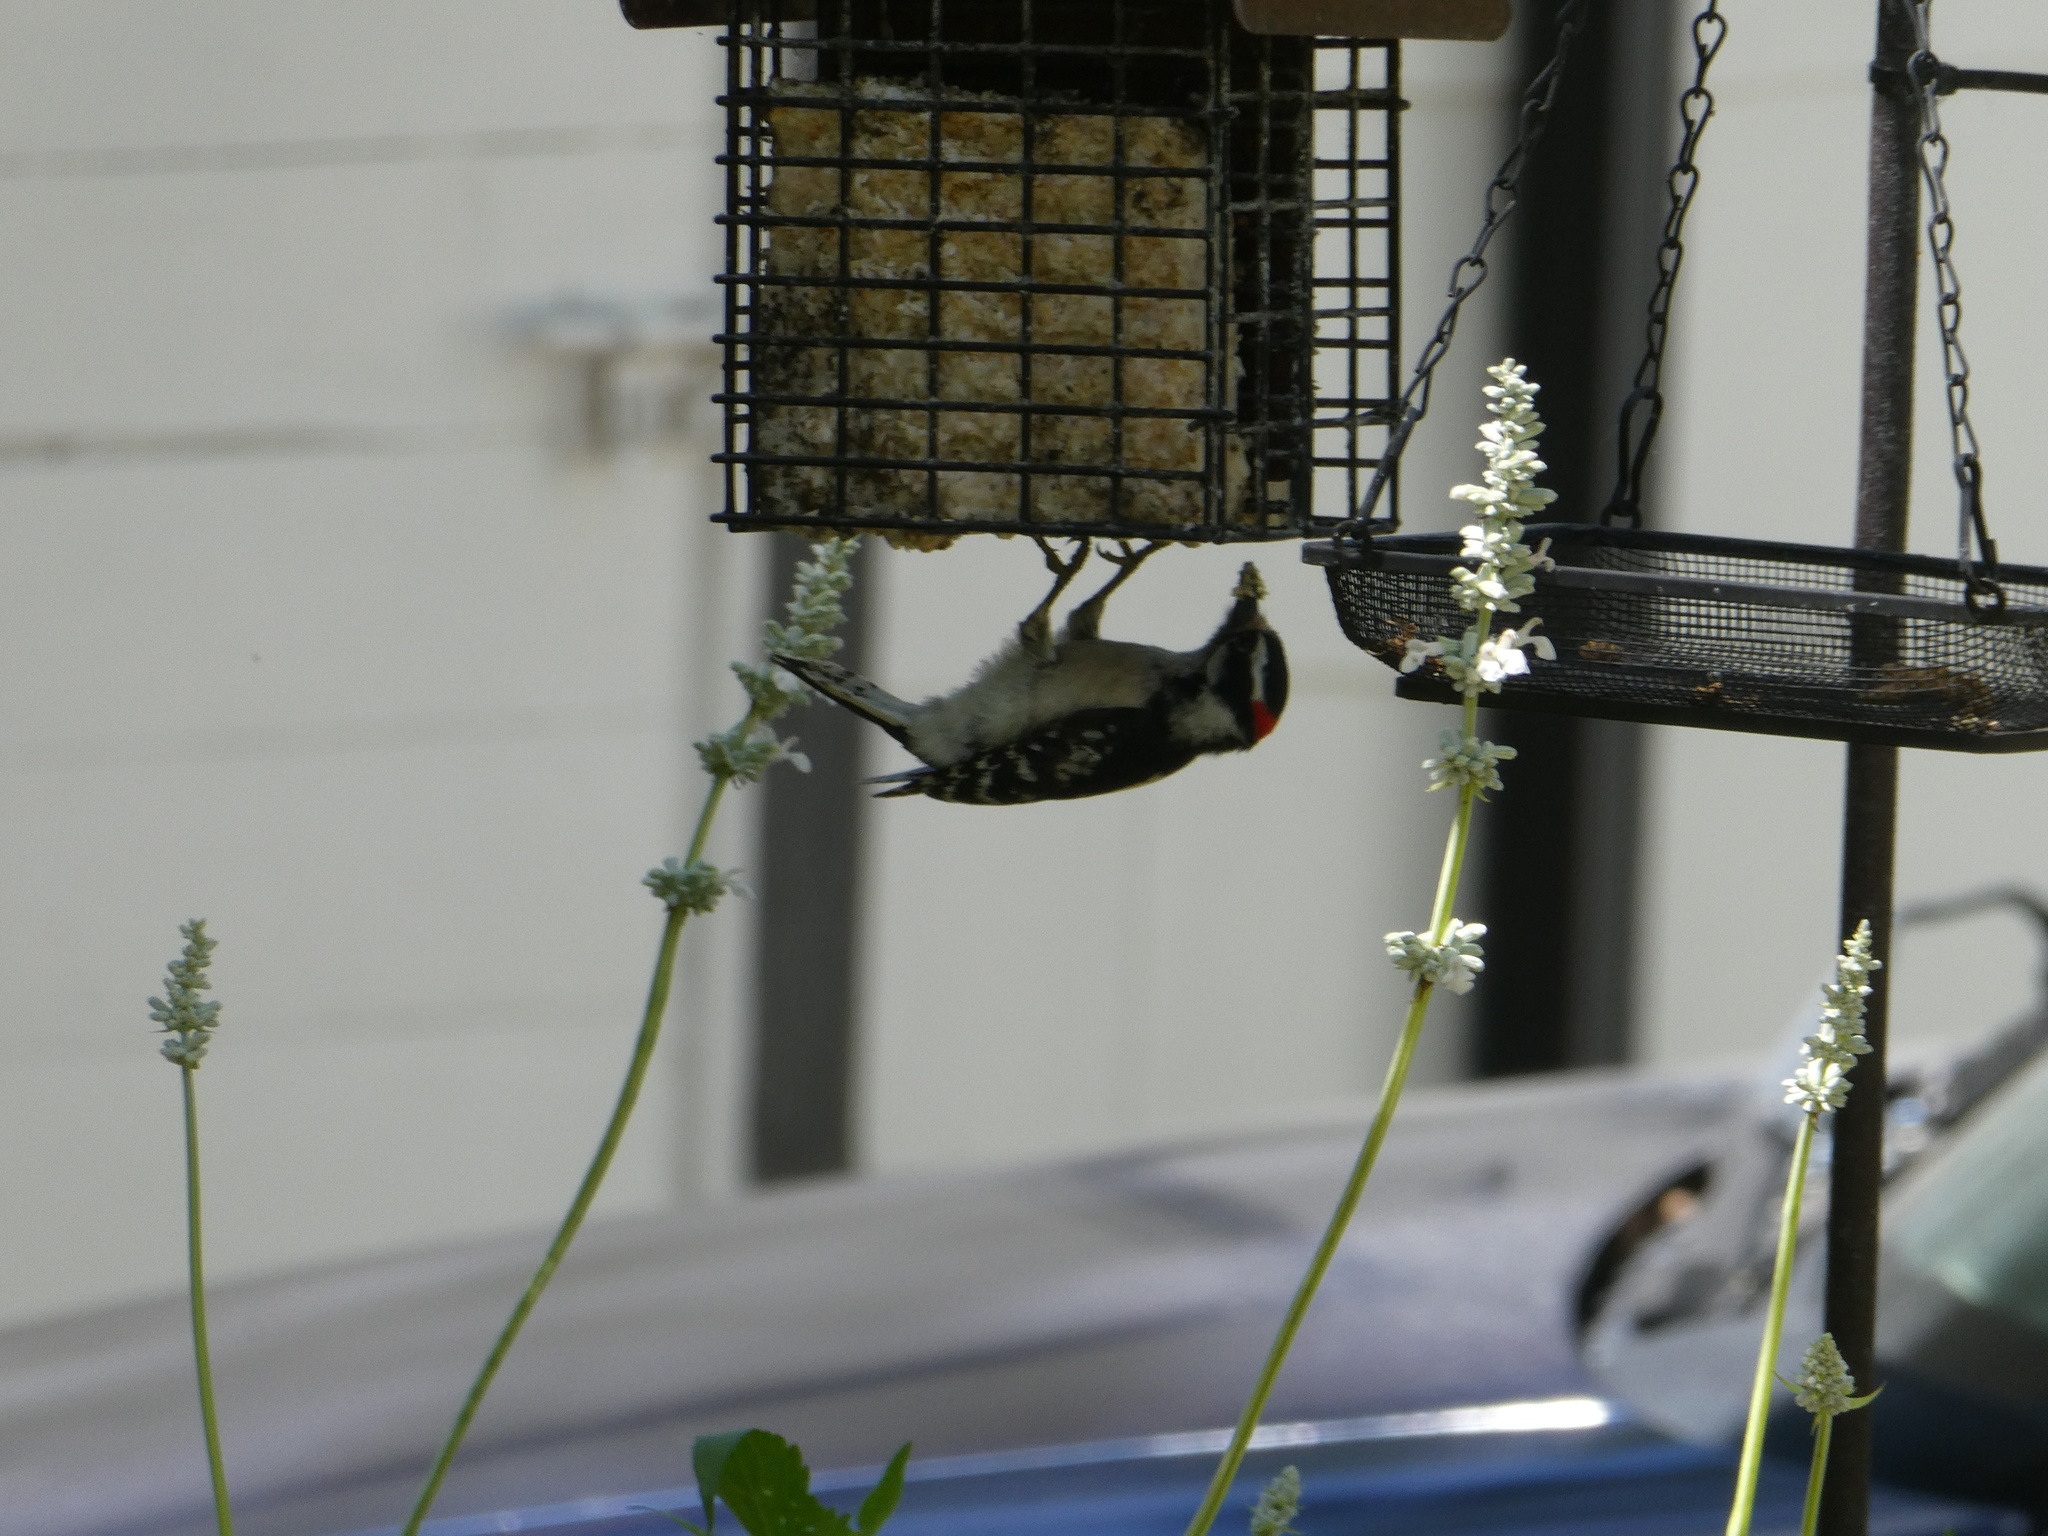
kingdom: Animalia
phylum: Chordata
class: Aves
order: Piciformes
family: Picidae
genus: Dryobates
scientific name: Dryobates pubescens
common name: Downy woodpecker
